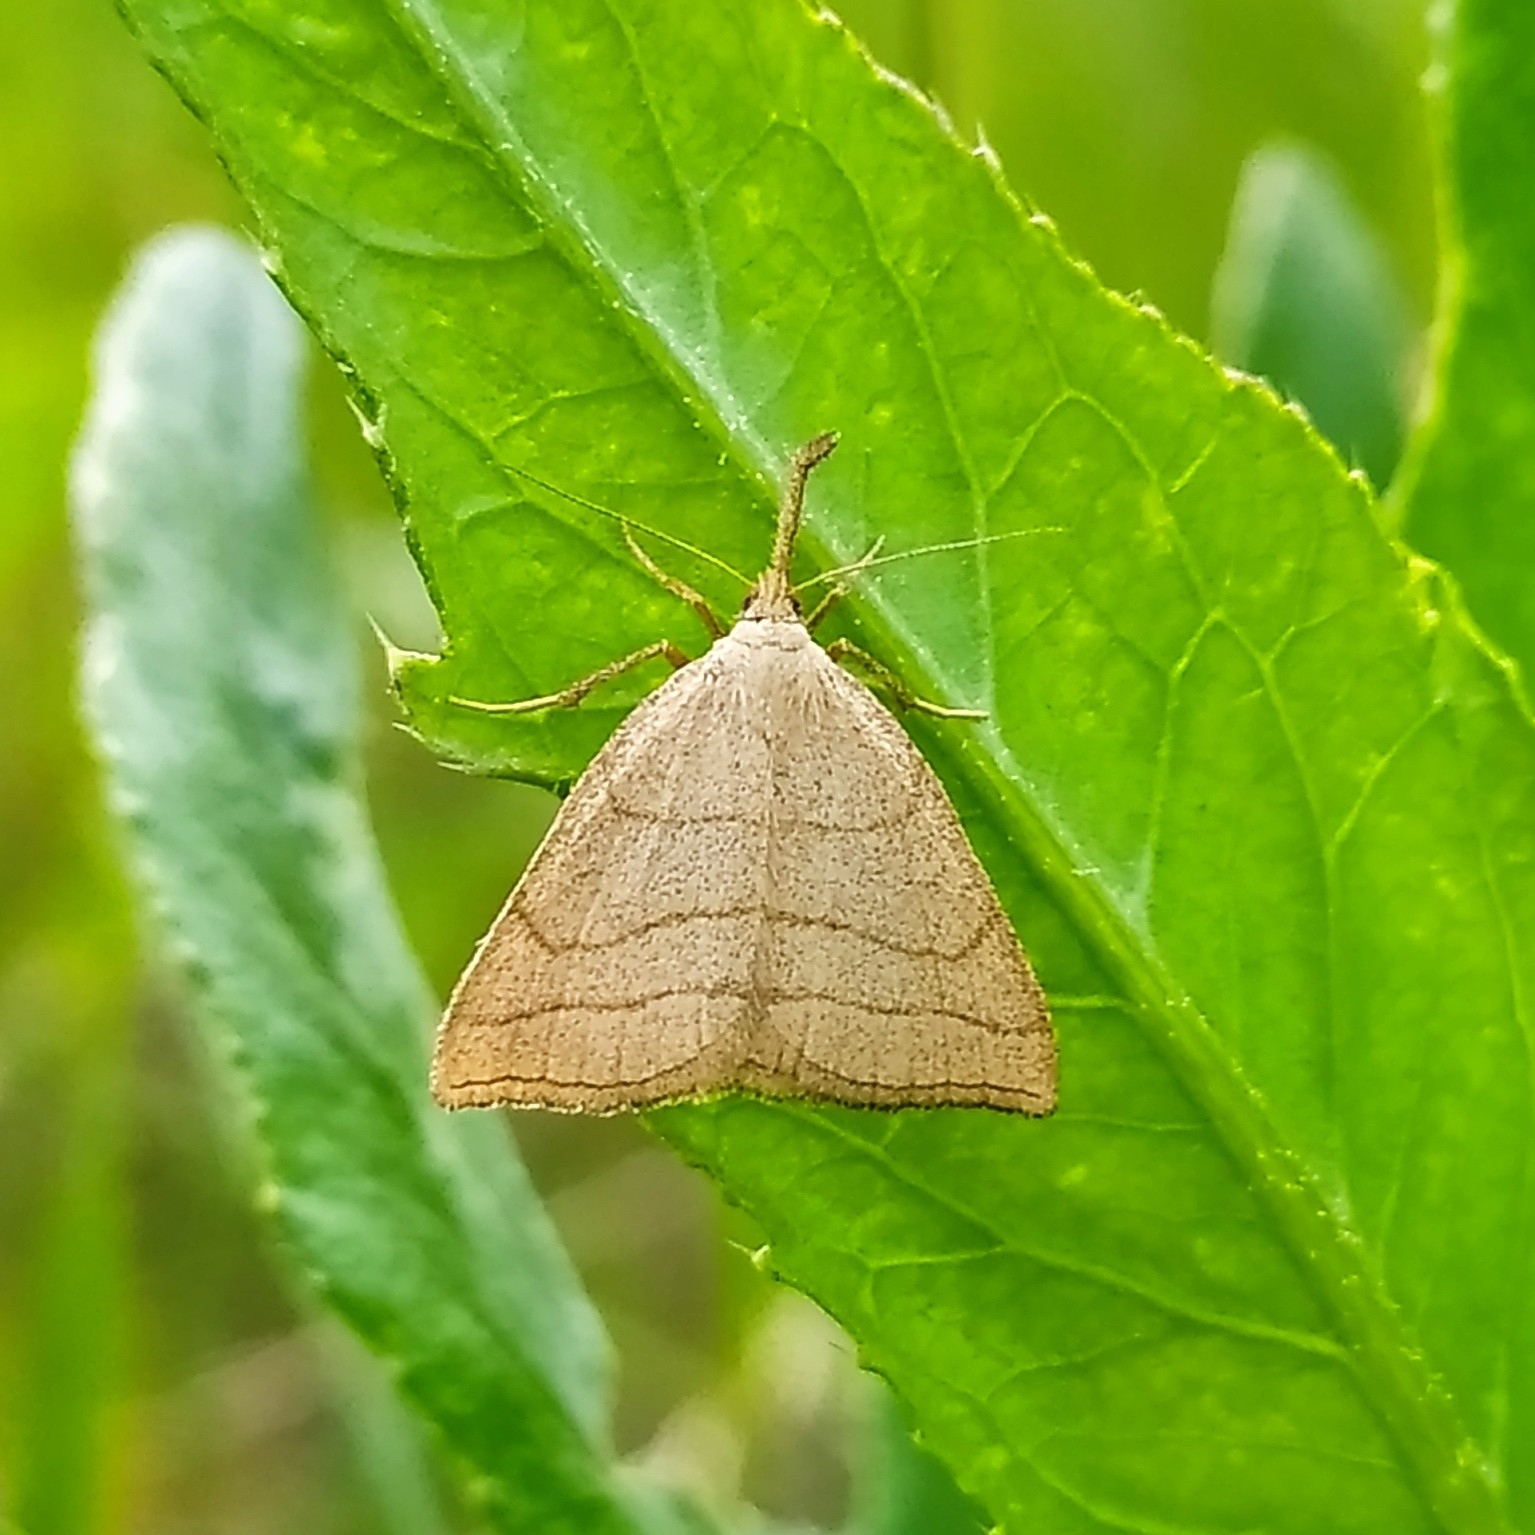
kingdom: Animalia
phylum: Arthropoda
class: Insecta
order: Lepidoptera
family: Erebidae
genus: Polypogon
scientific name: Polypogon tentacularia
